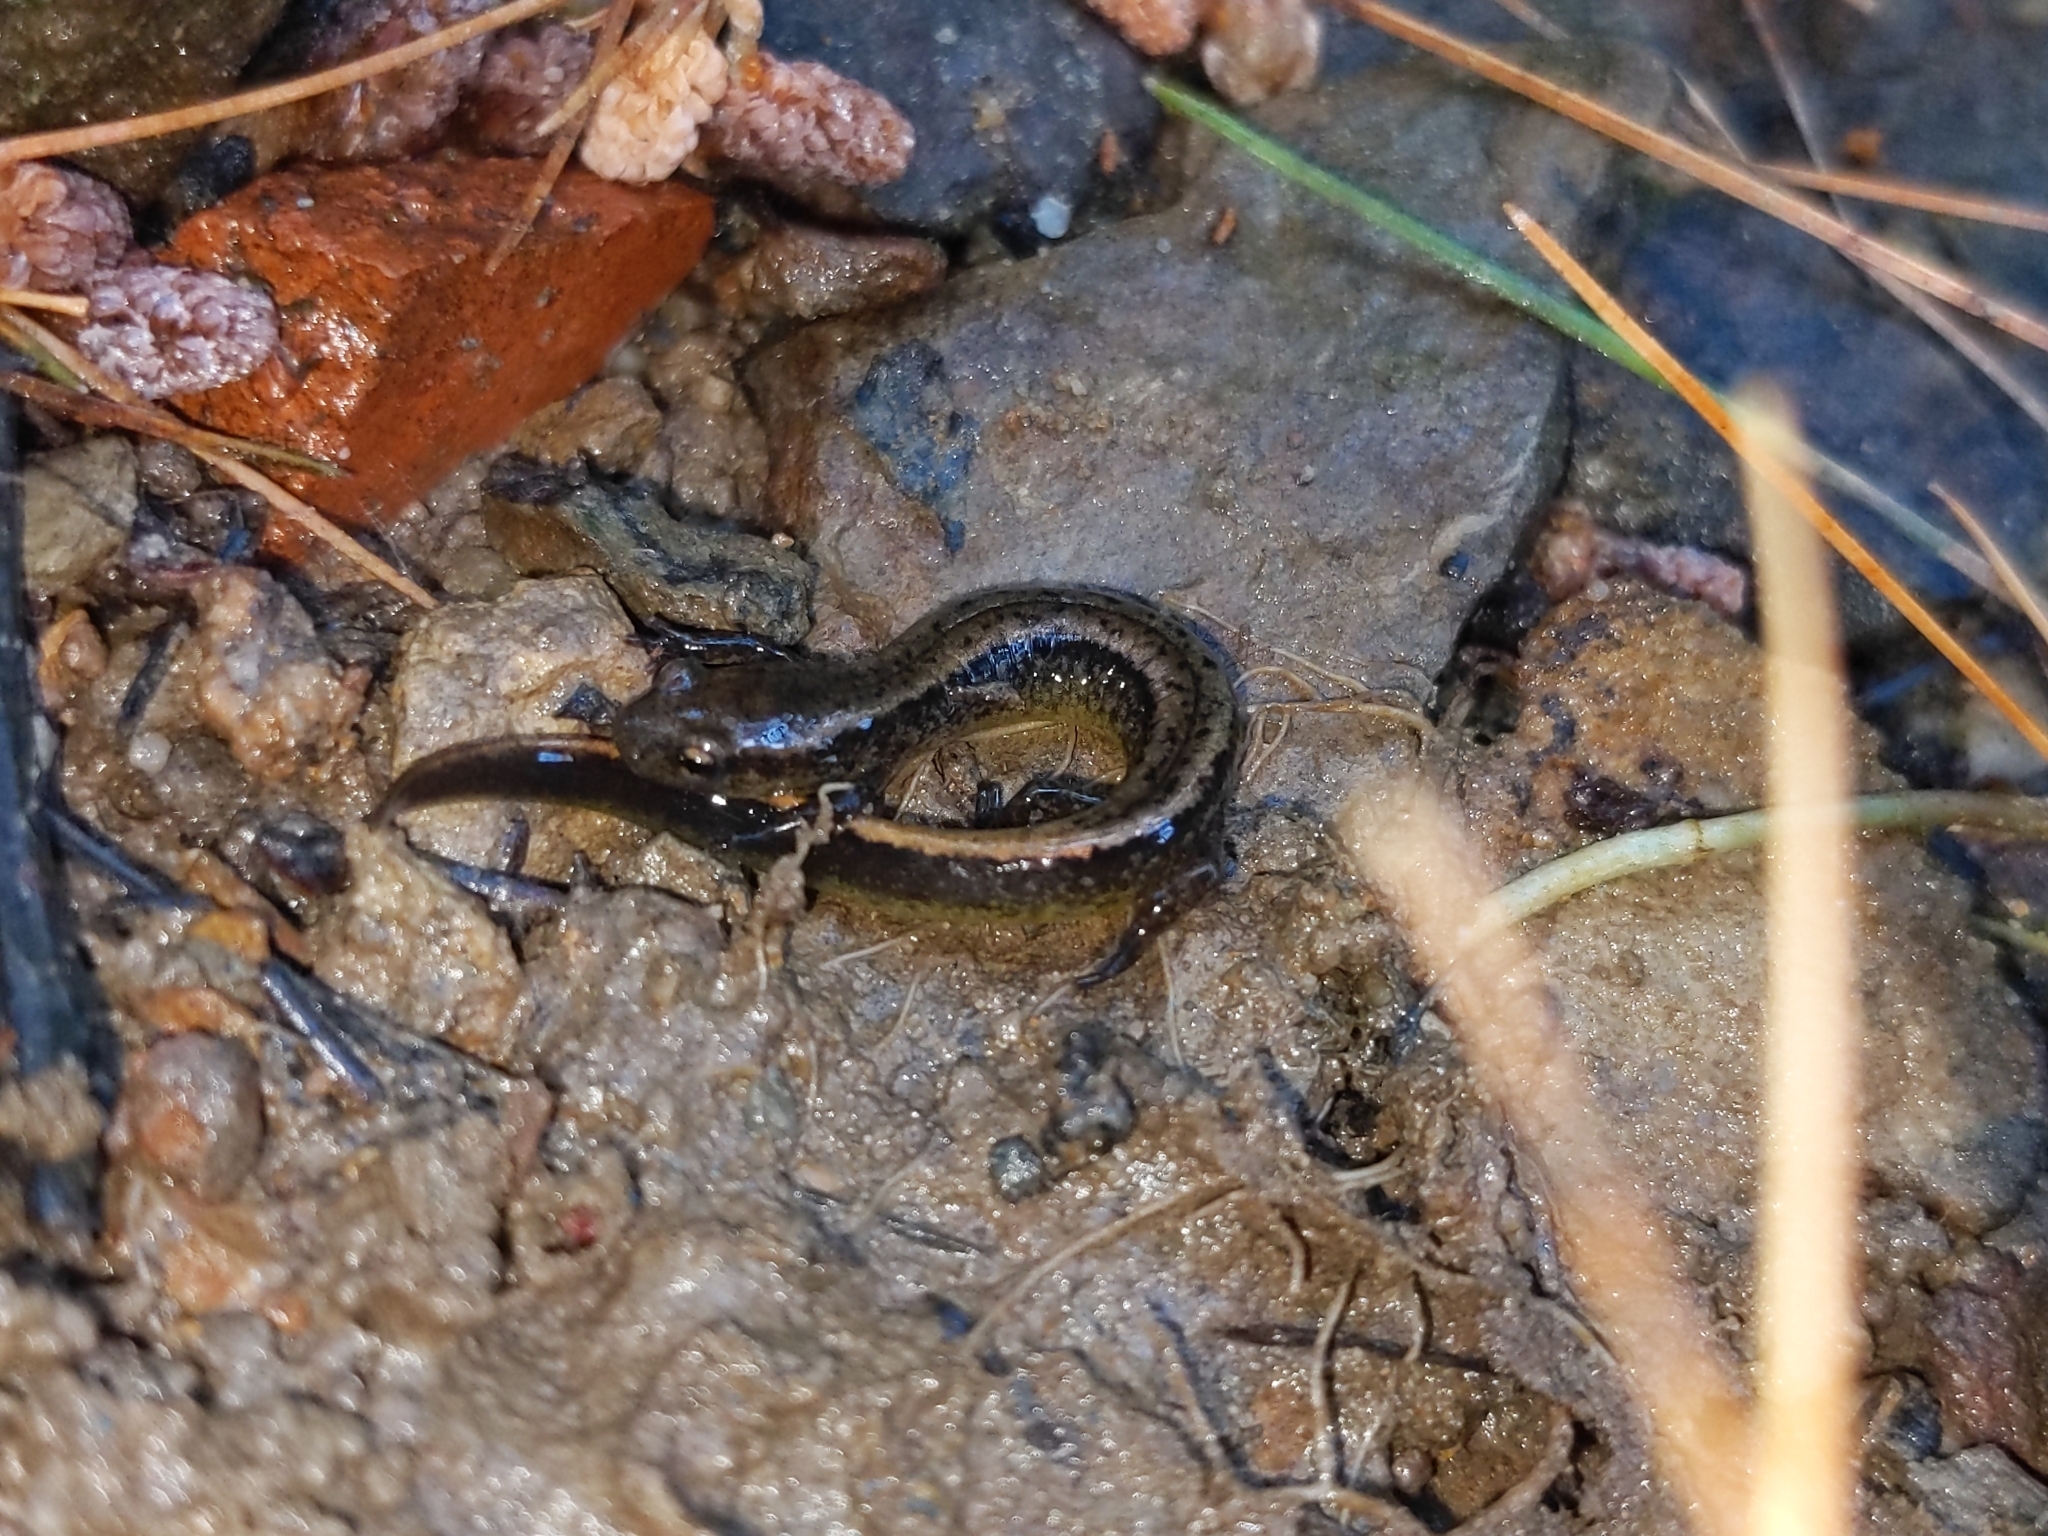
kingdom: Animalia
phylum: Chordata
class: Amphibia
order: Caudata
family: Plethodontidae
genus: Eurycea
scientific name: Eurycea bislineata
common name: Northern two-lined salamander
